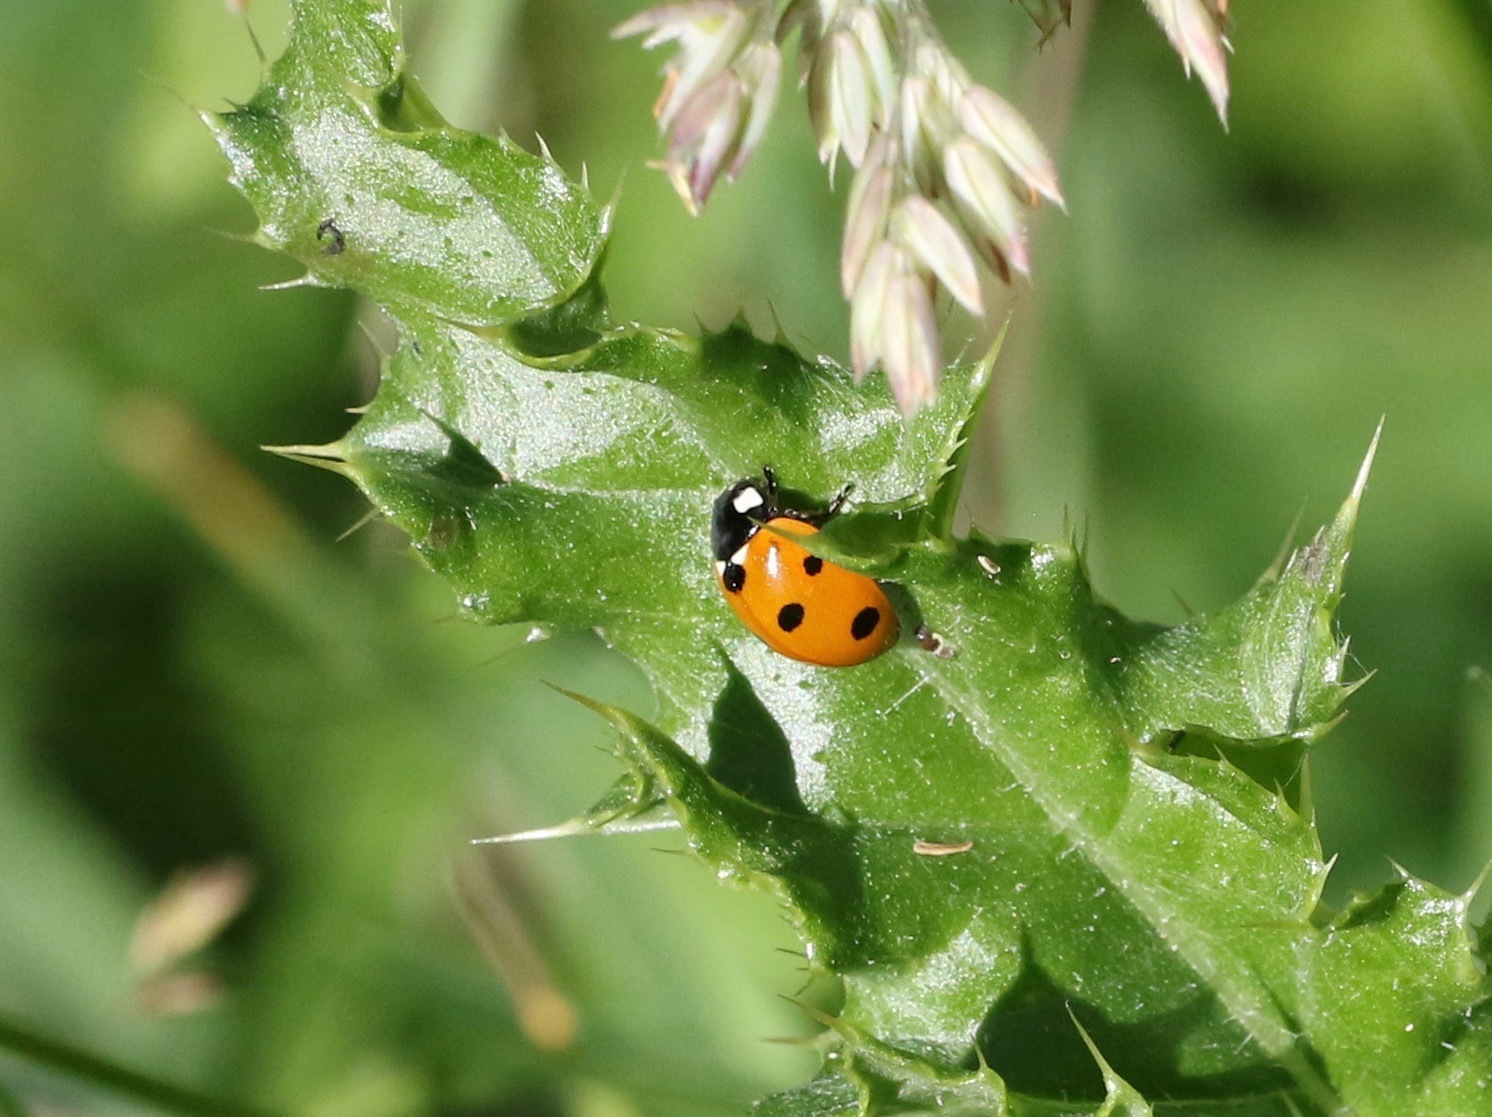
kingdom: Animalia
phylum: Arthropoda
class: Insecta
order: Coleoptera
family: Coccinellidae
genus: Coccinella
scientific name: Coccinella septempunctata
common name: Sevenspotted lady beetle
